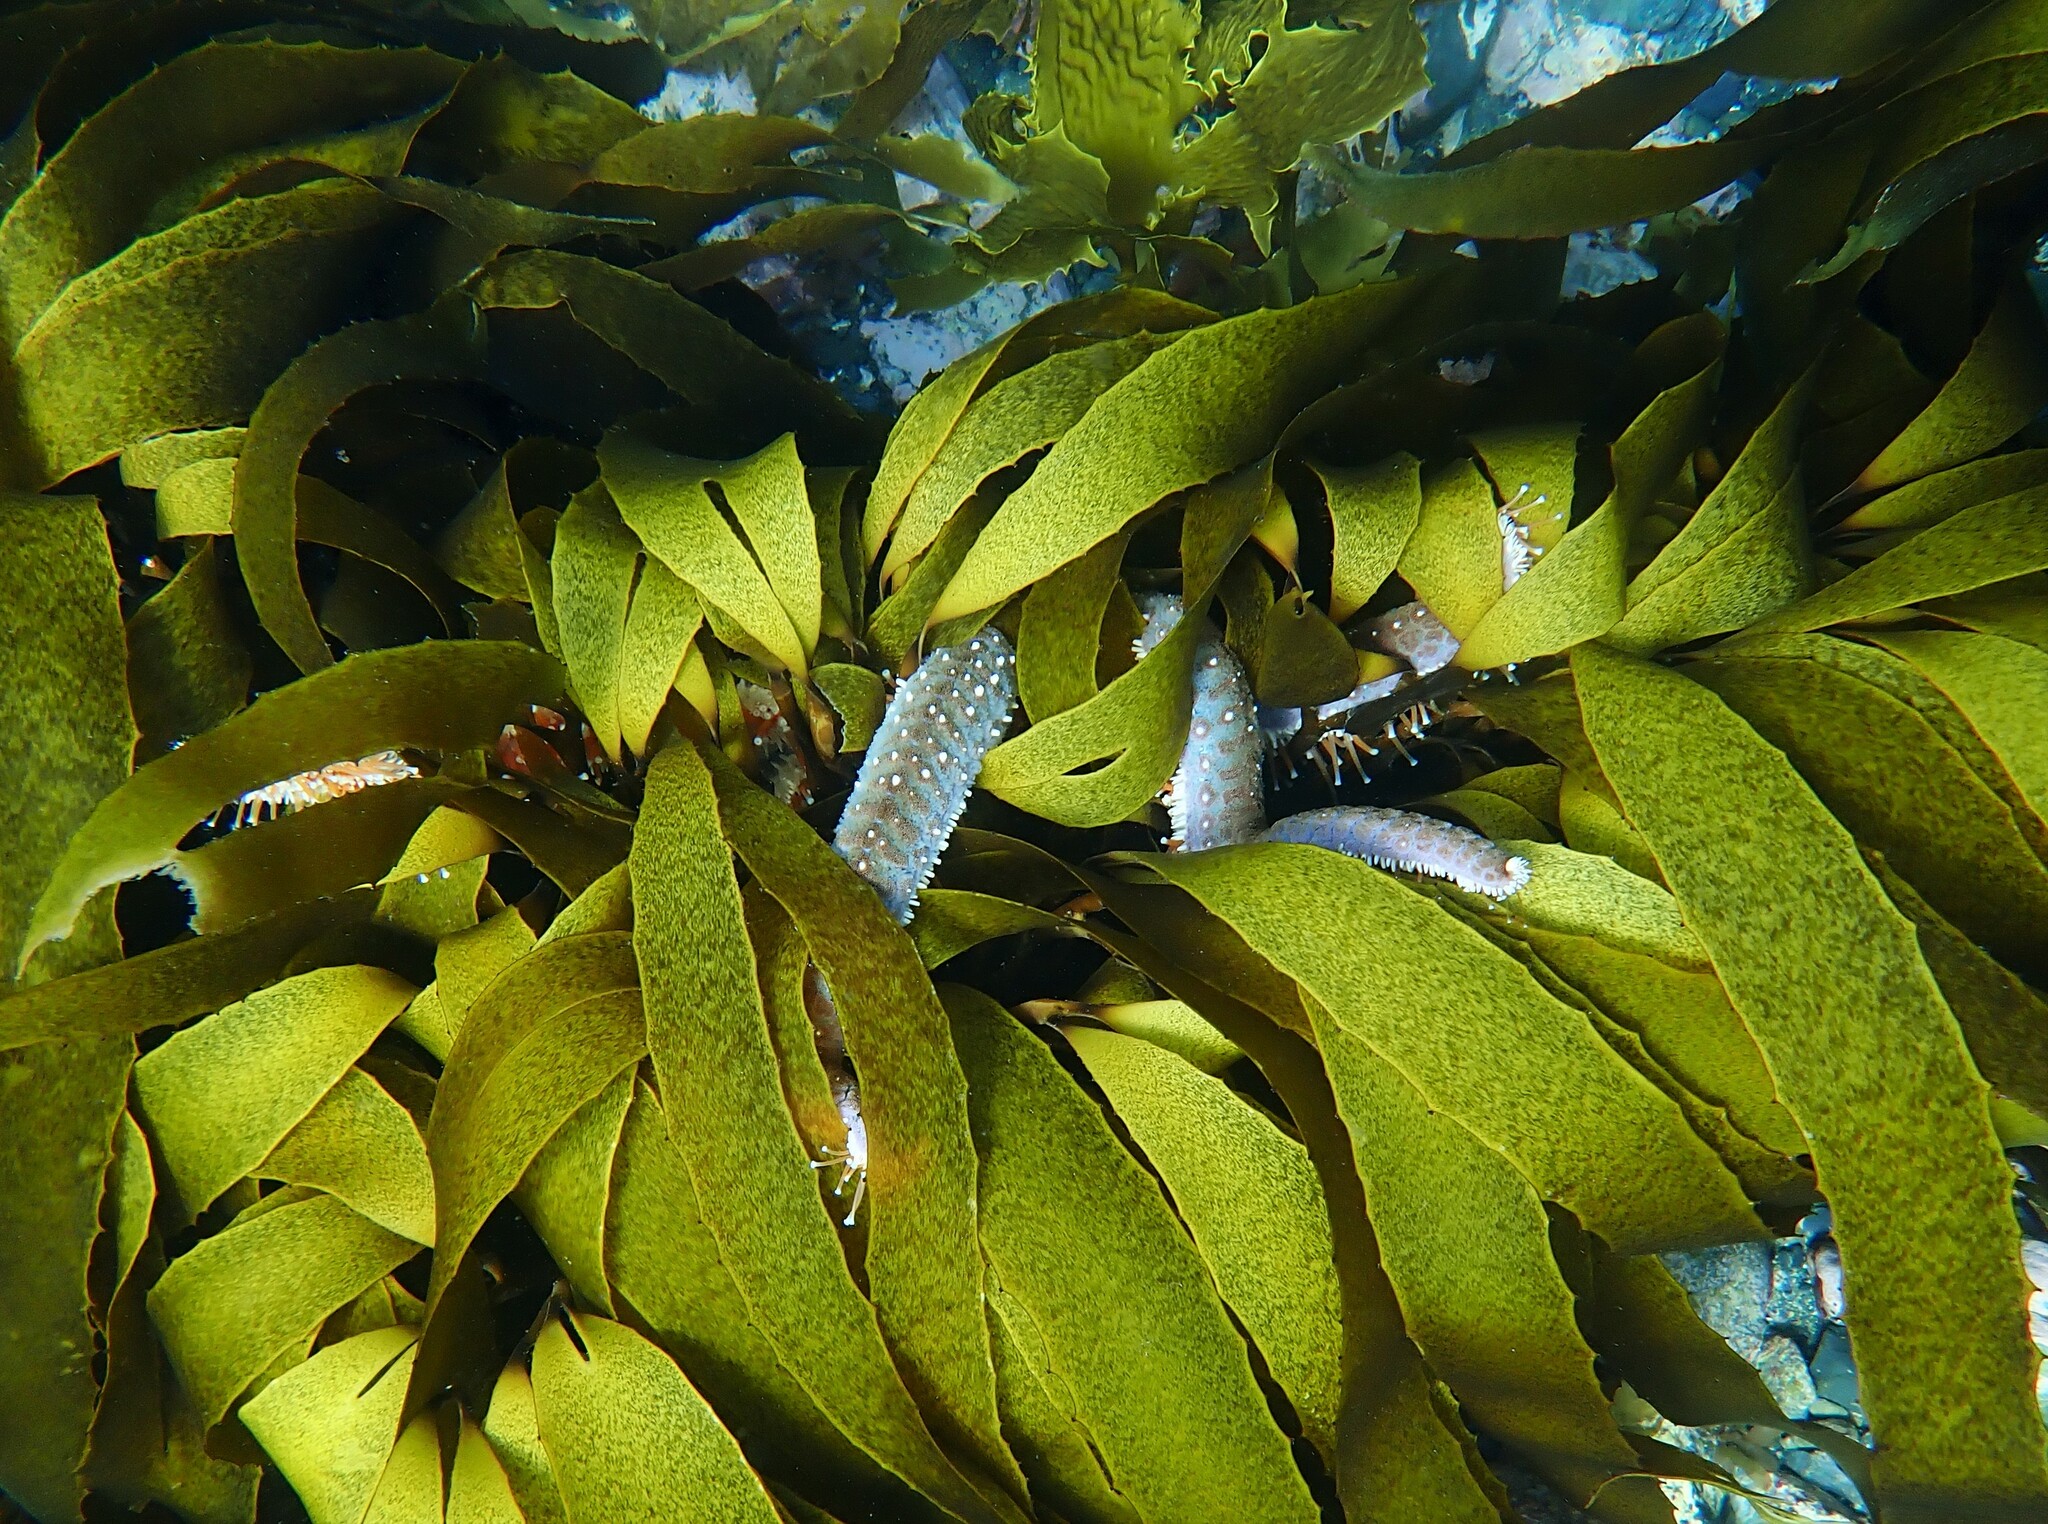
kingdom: Animalia
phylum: Echinodermata
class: Asteroidea
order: Forcipulatida
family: Asteriidae
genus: Astrostole
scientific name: Astrostole scabra
